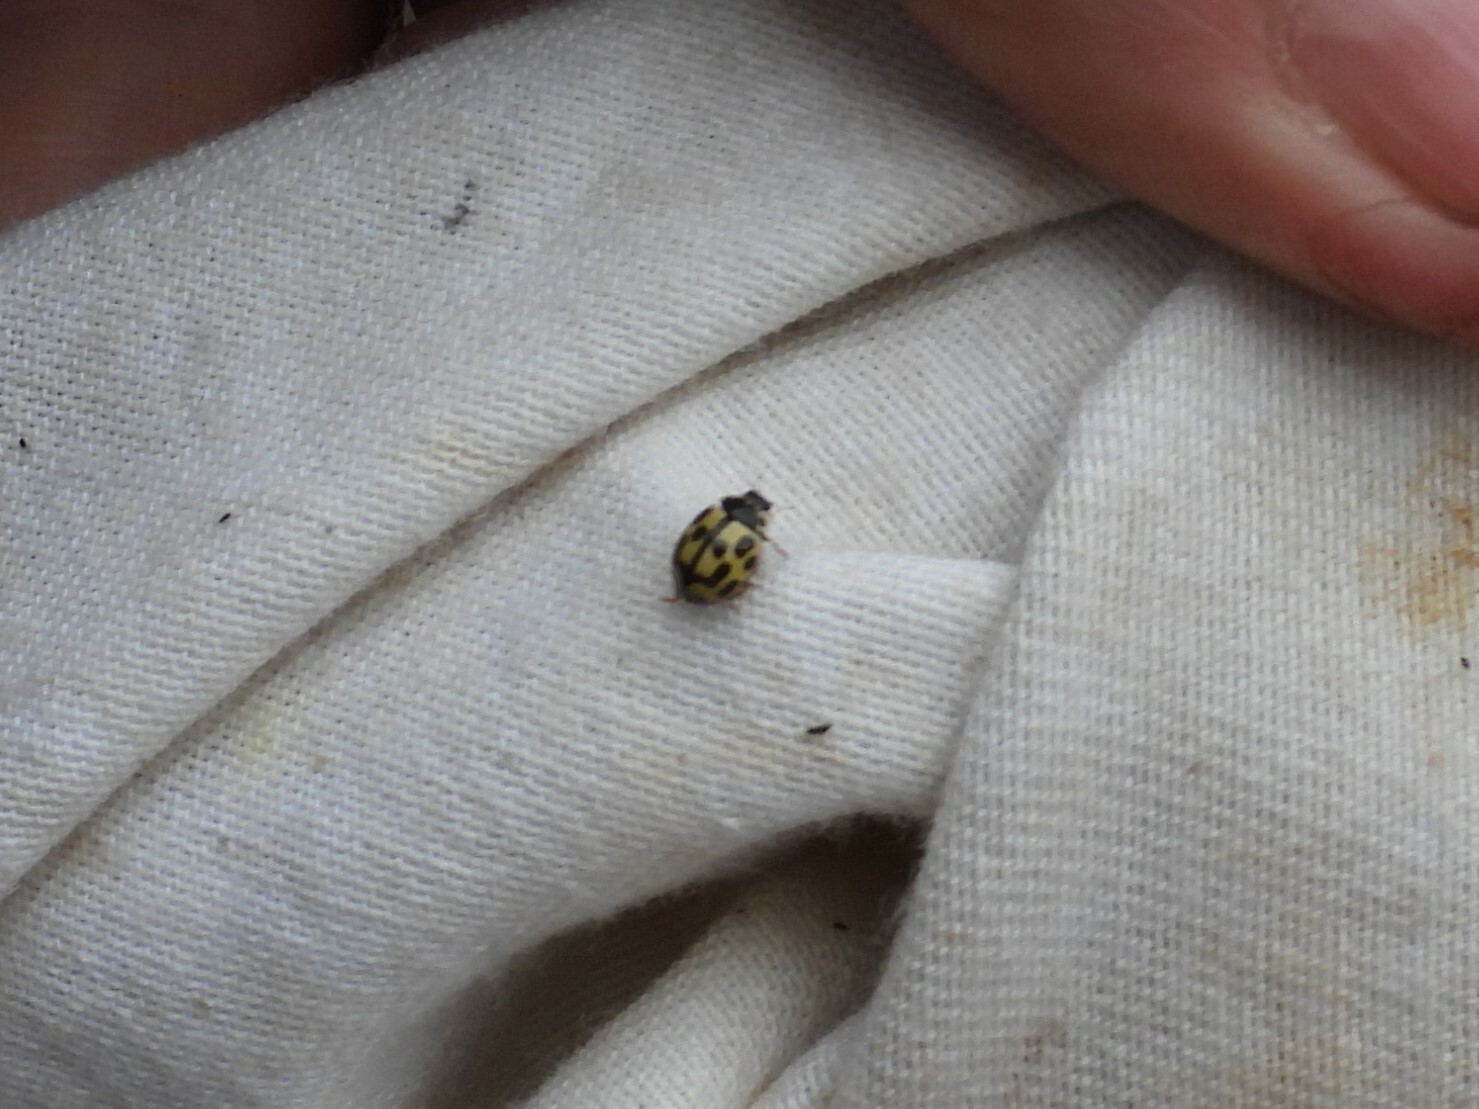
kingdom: Animalia
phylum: Arthropoda
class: Insecta
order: Coleoptera
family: Coccinellidae
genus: Propylaea
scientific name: Propylaea quatuordecimpunctata
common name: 14-spotted ladybird beetle
